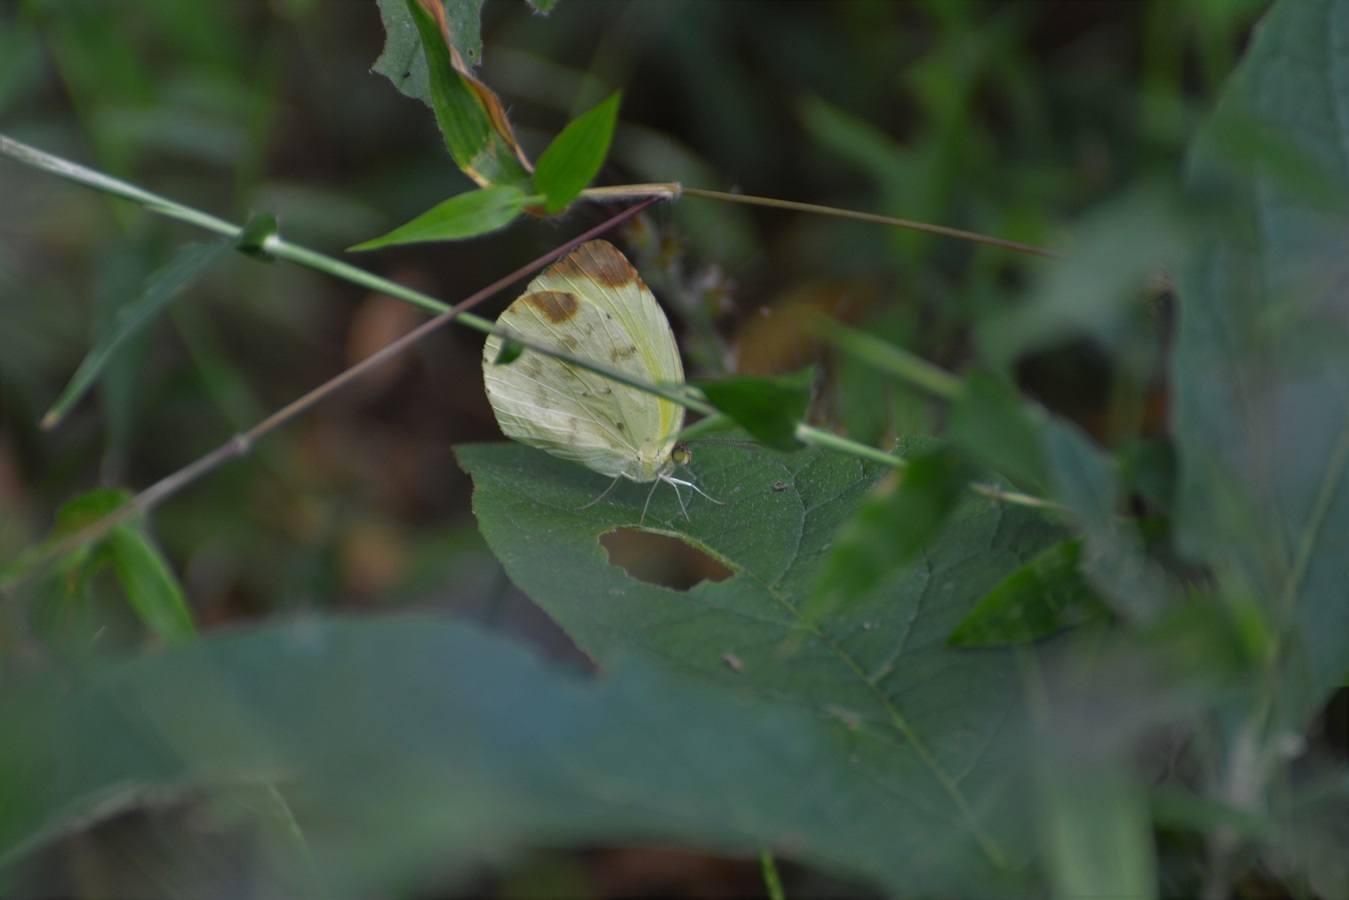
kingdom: Animalia
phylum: Arthropoda
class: Insecta
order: Lepidoptera
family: Pieridae
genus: Pyrisitia
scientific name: Pyrisitia westwoodi
